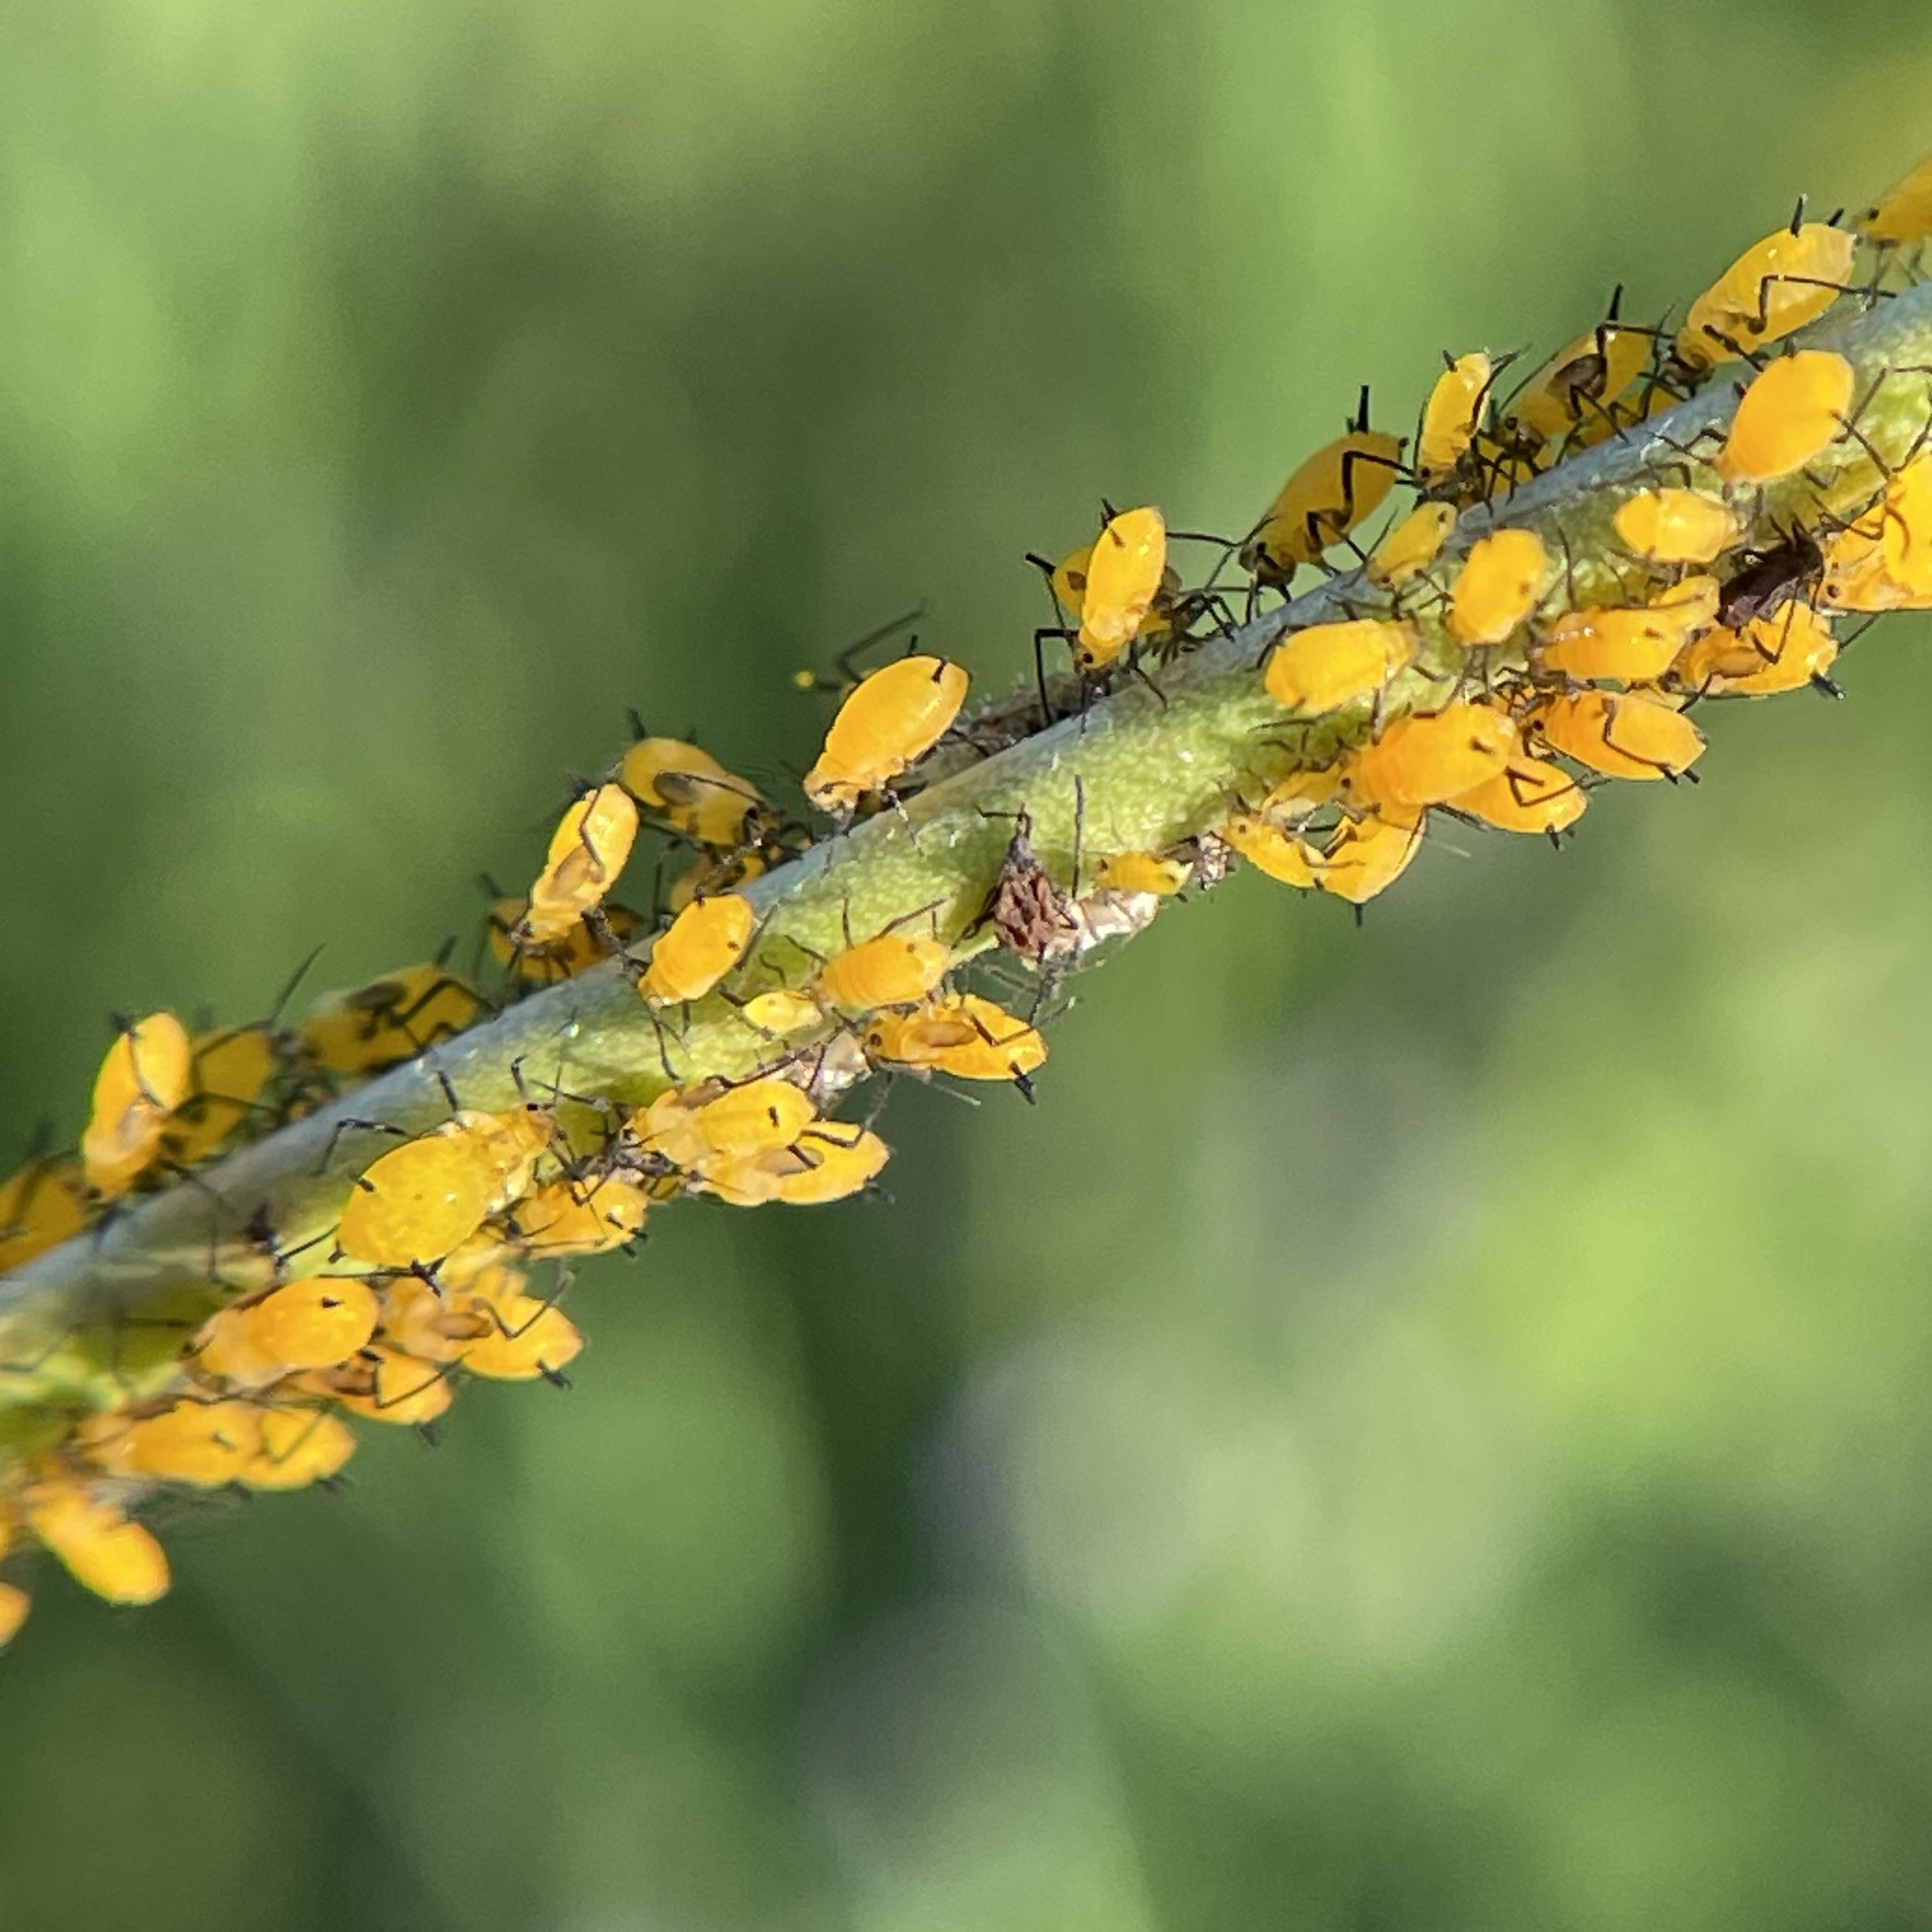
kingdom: Animalia
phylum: Arthropoda
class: Insecta
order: Hemiptera
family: Aphididae
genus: Aphis
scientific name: Aphis nerii
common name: Oleander aphid
